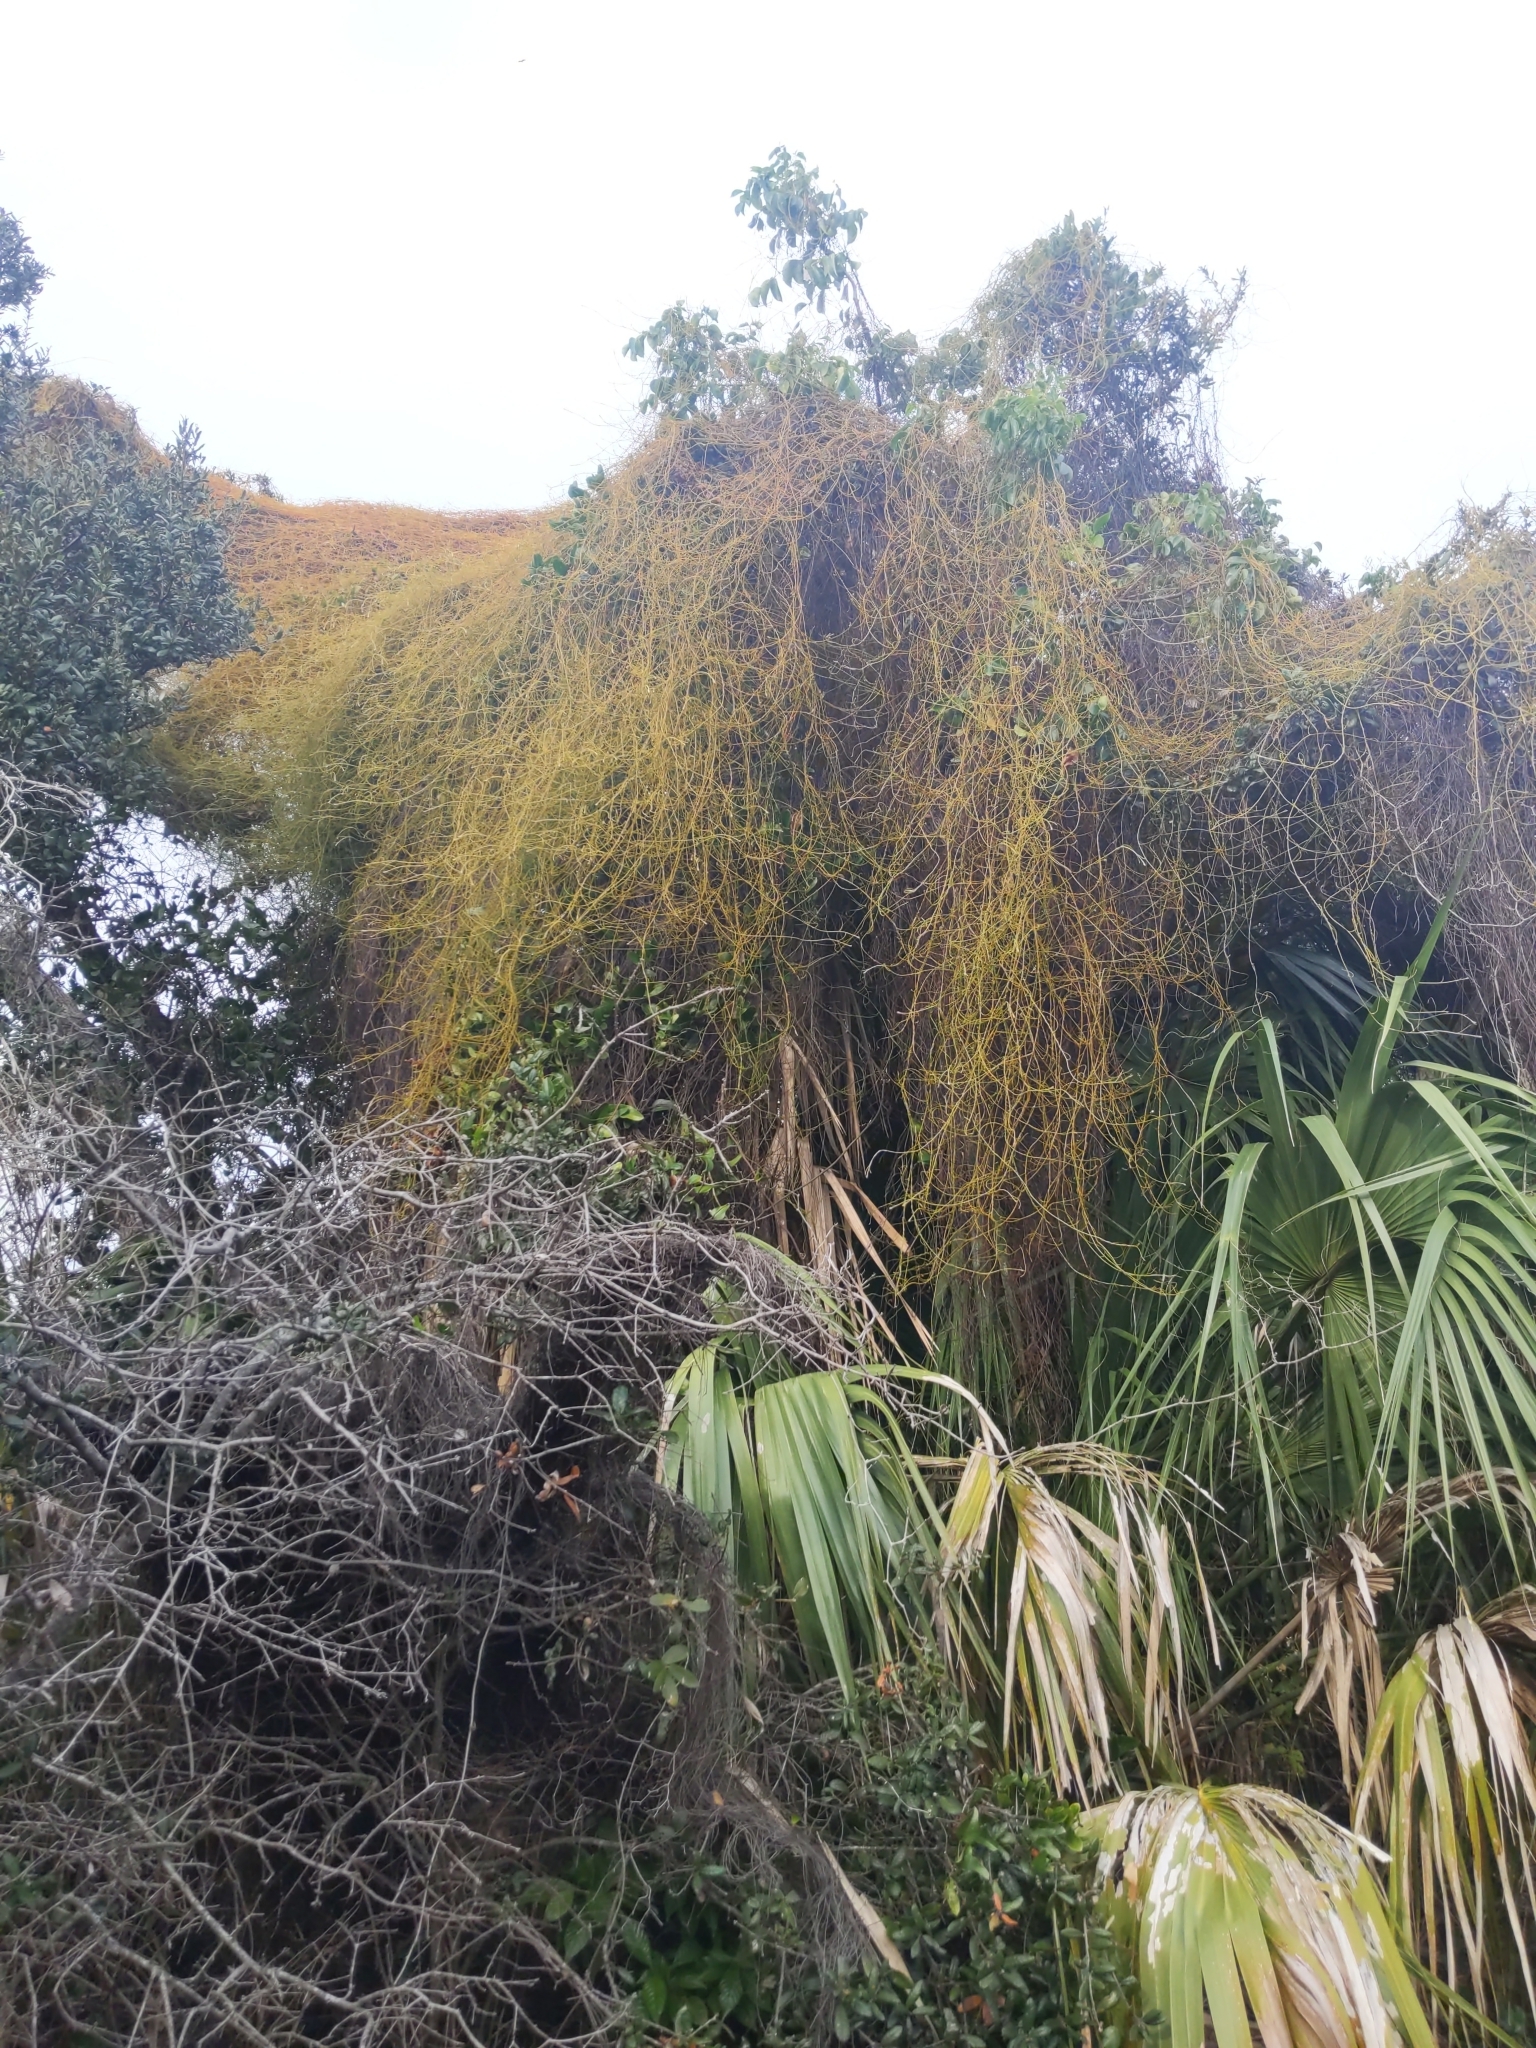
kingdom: Plantae
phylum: Tracheophyta
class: Magnoliopsida
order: Laurales
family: Lauraceae
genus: Cassytha
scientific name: Cassytha filiformis
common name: Dodder-laurel
